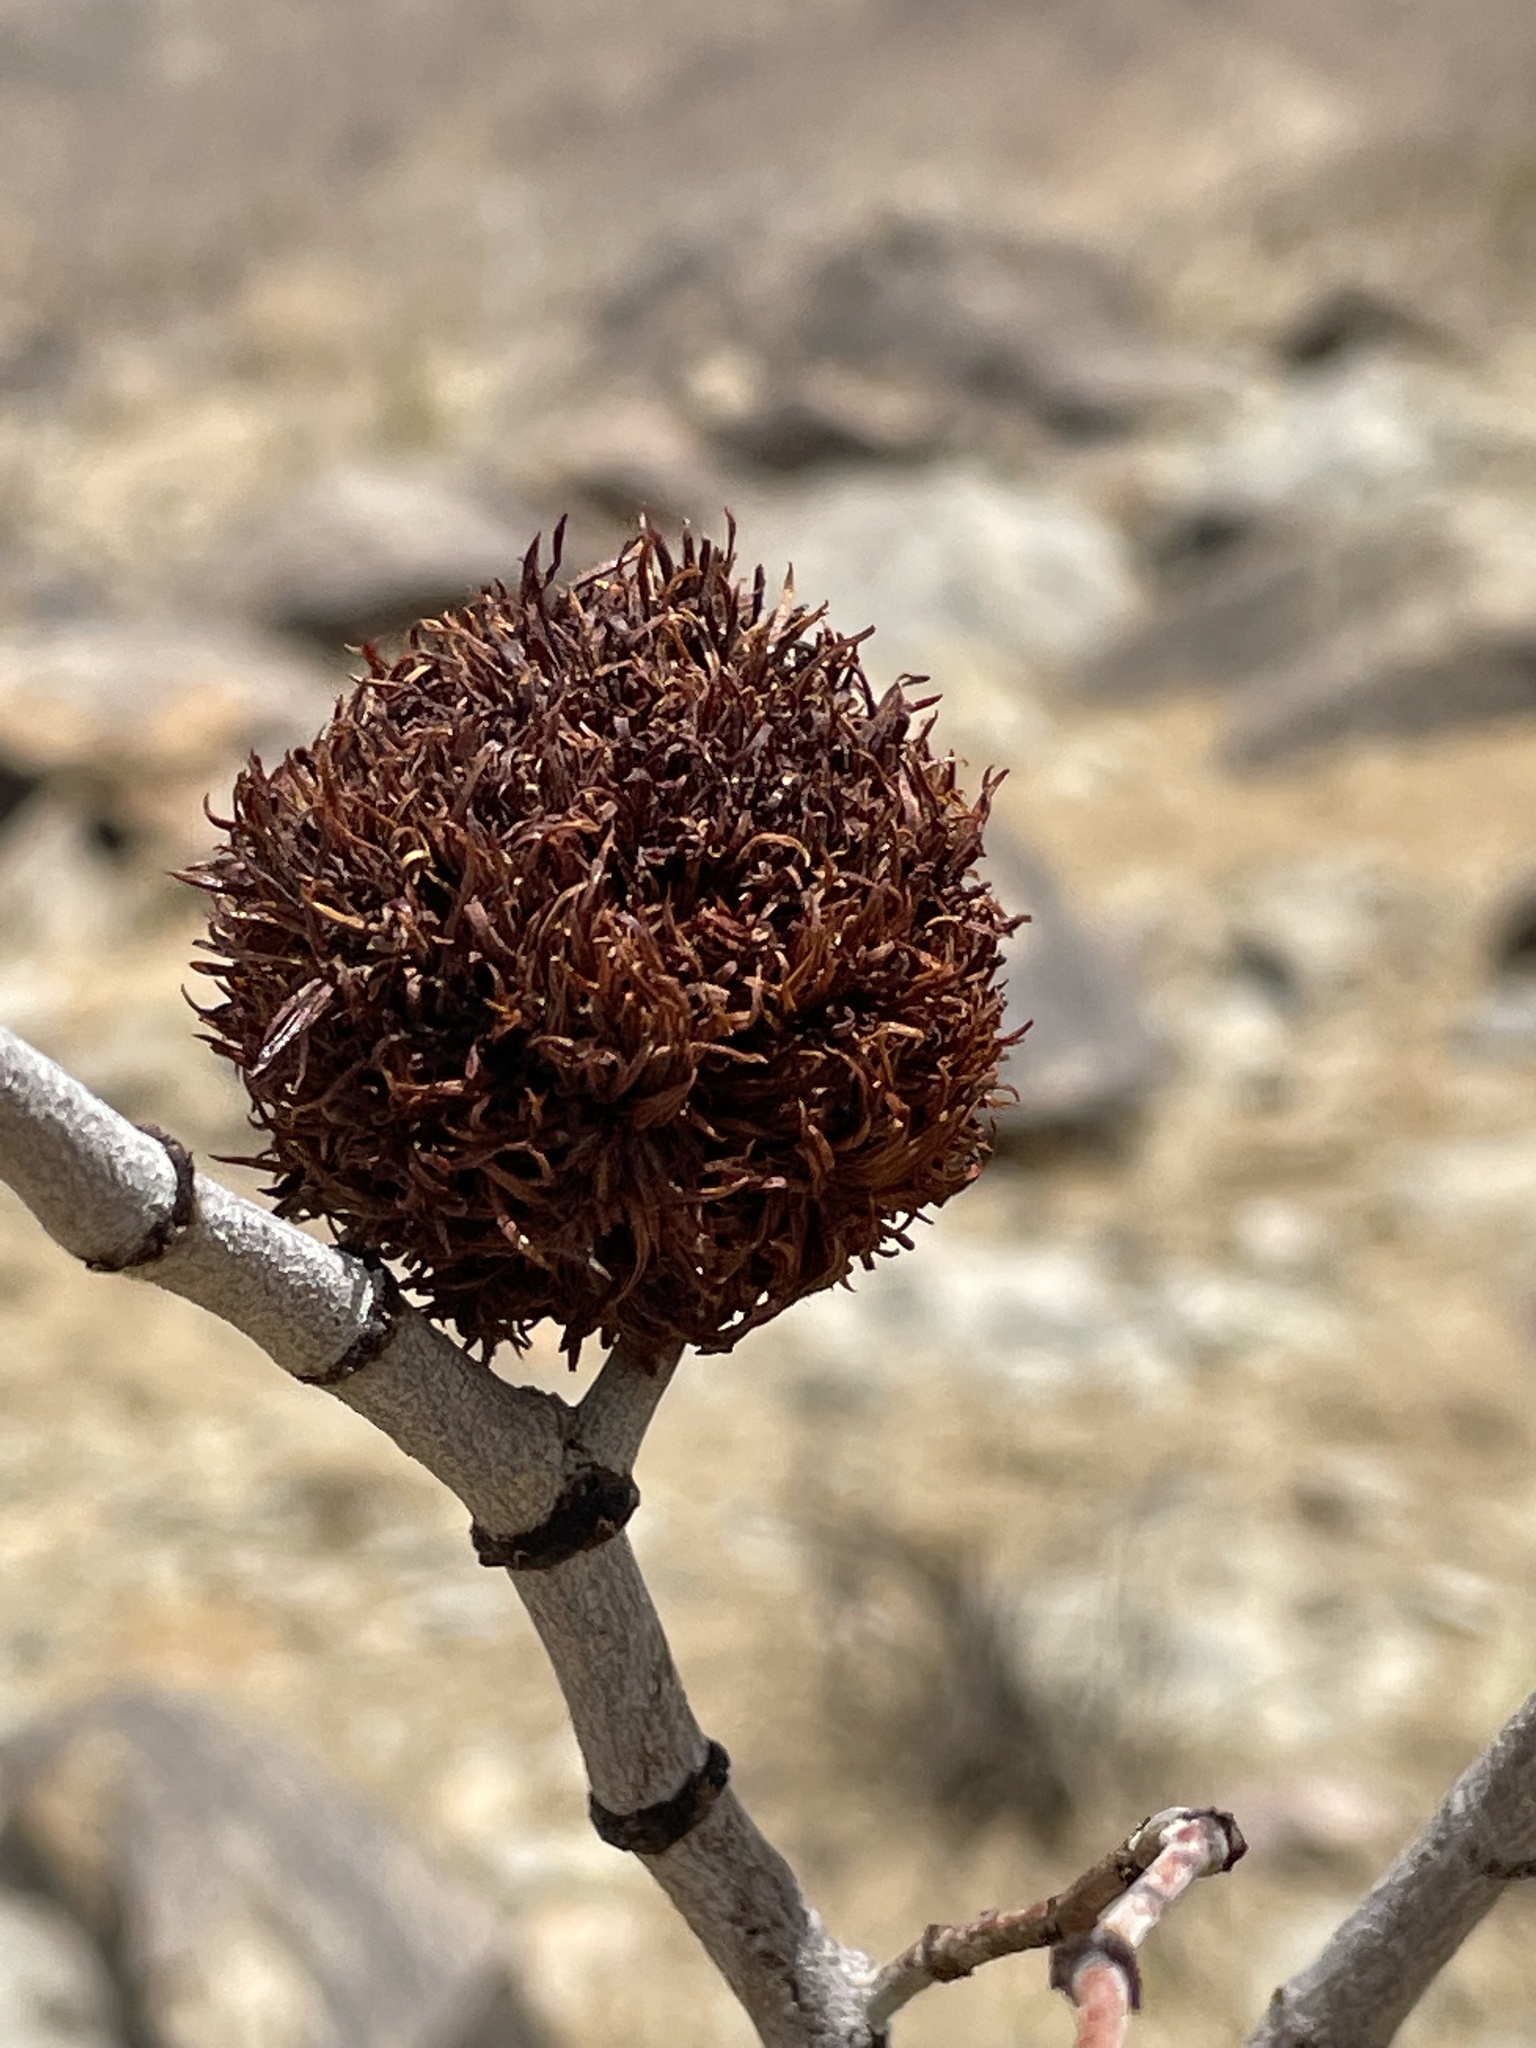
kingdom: Animalia
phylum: Arthropoda
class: Insecta
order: Diptera
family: Cecidomyiidae
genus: Asphondylia
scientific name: Asphondylia auripila
